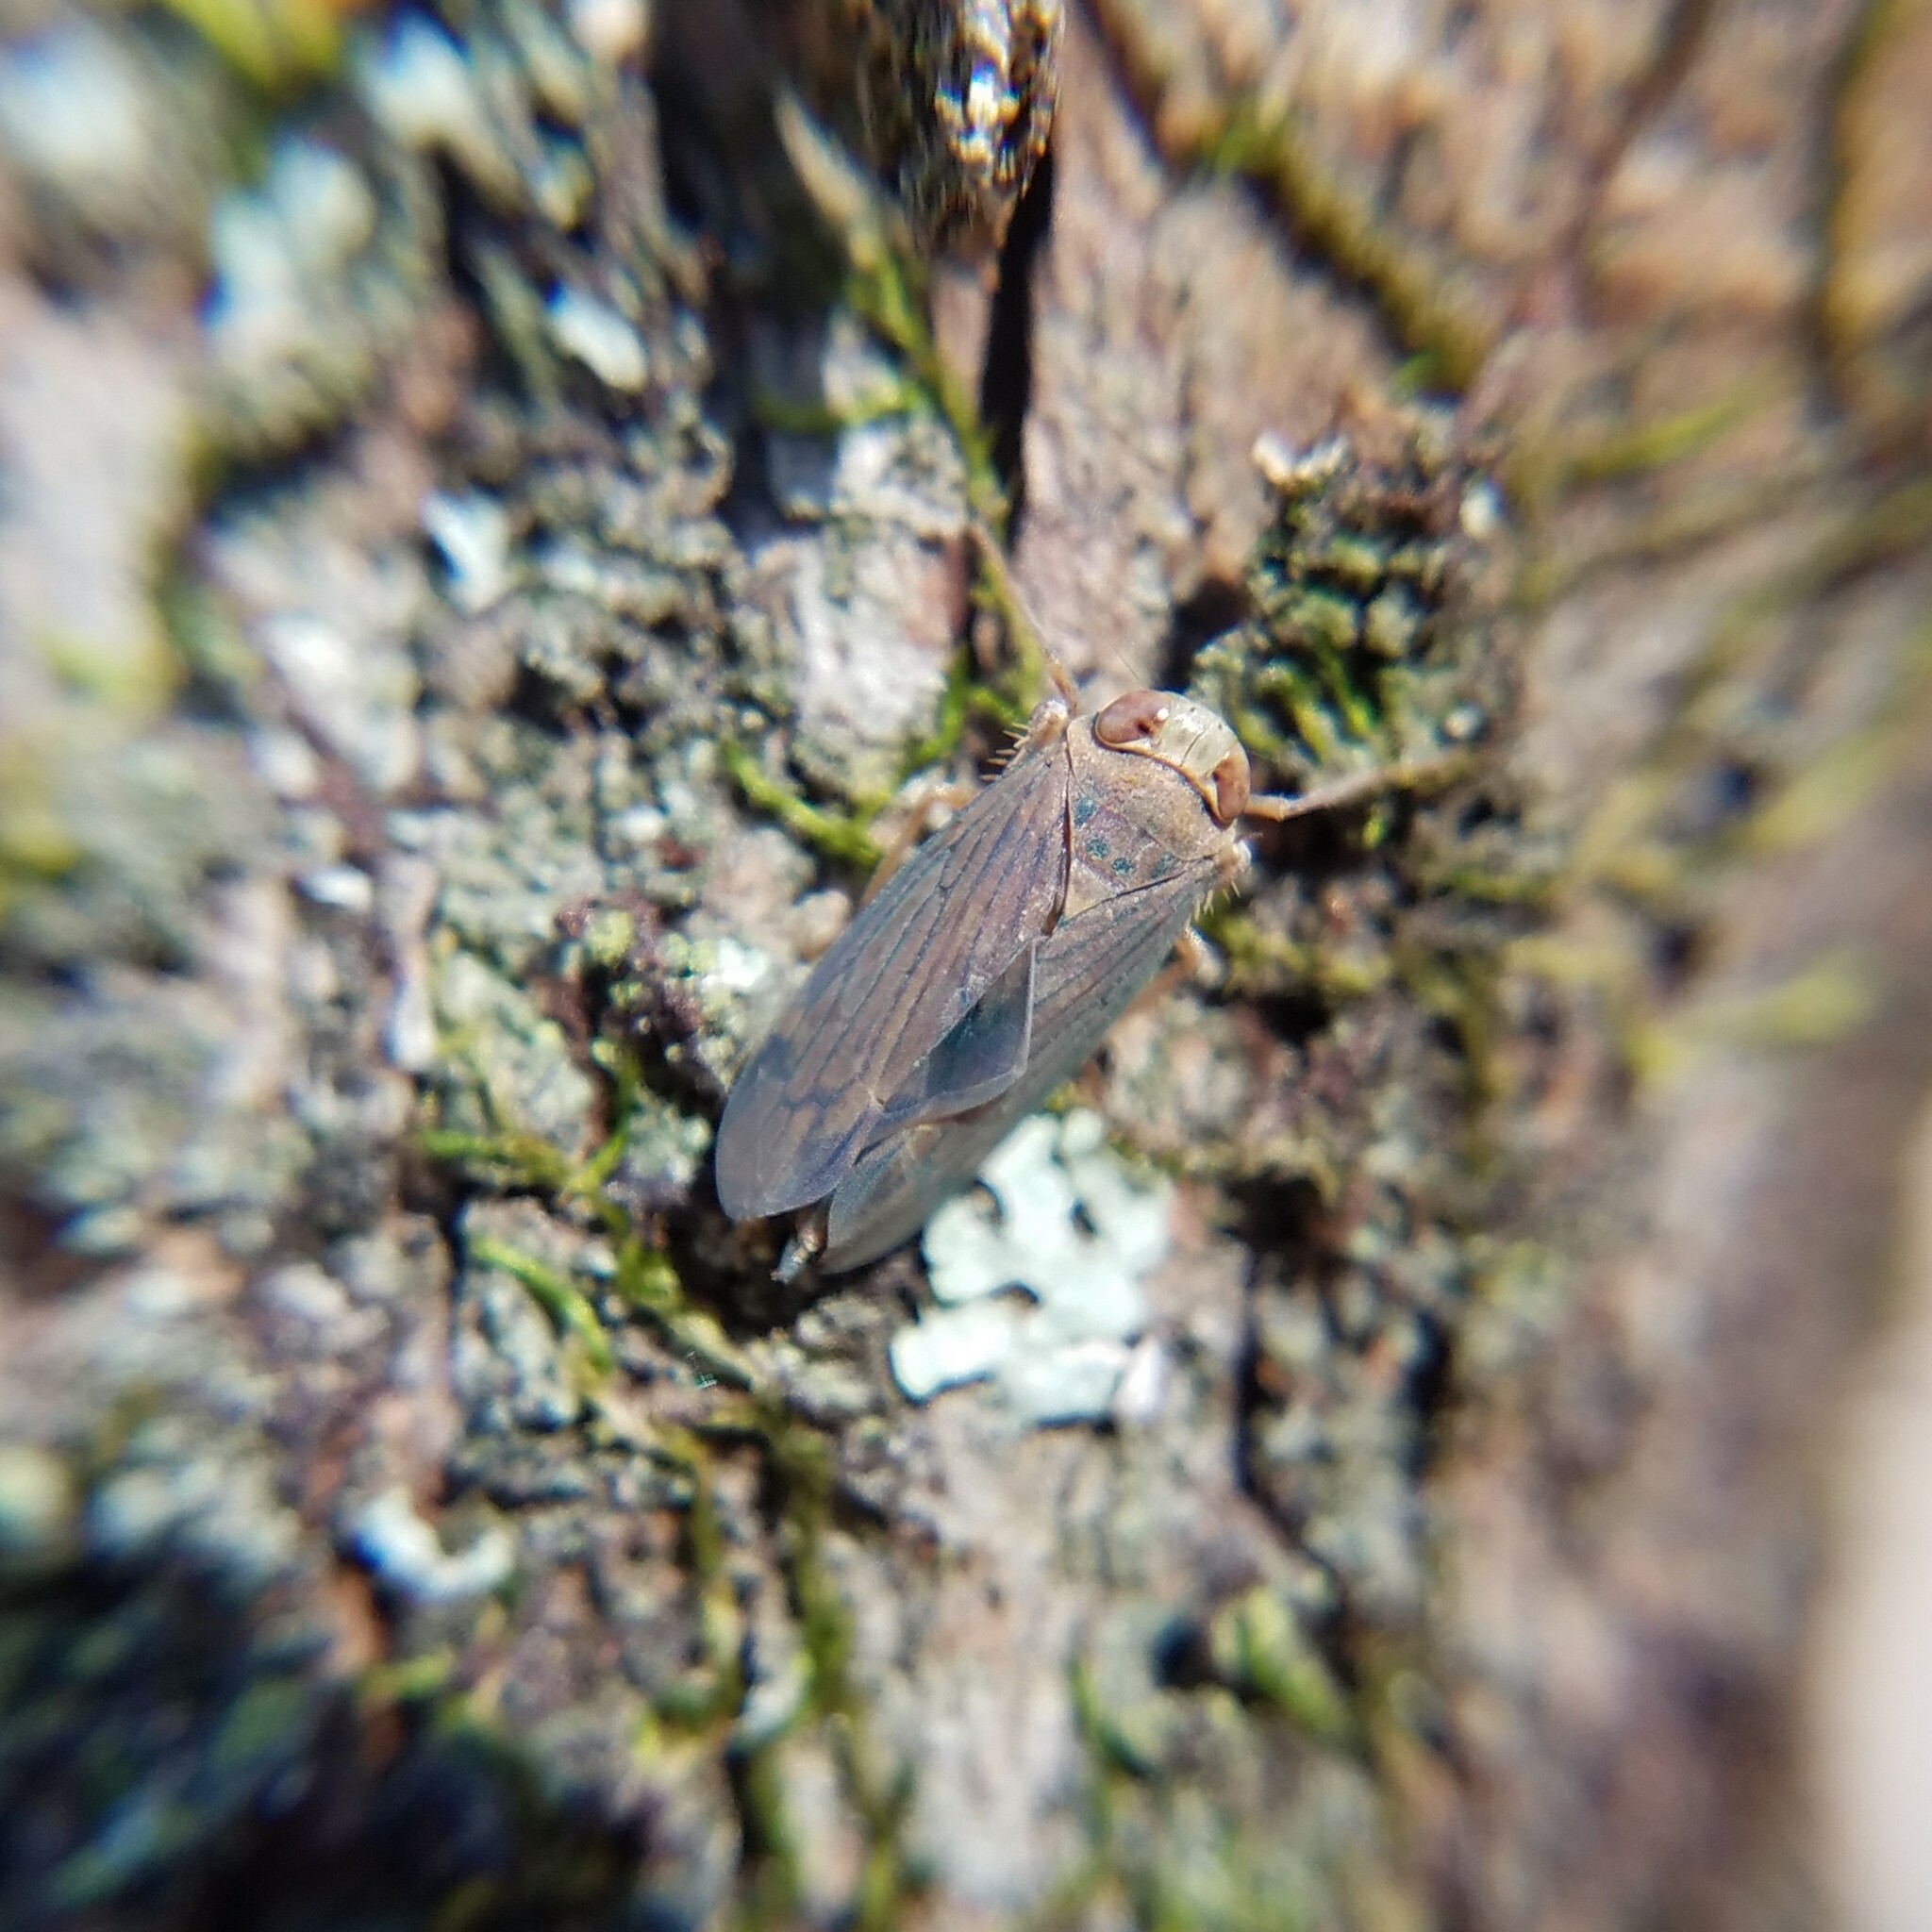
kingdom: Animalia
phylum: Arthropoda
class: Insecta
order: Hemiptera
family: Cicadellidae
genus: Jikradia
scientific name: Jikradia olitoria
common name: Coppery leafhopper
